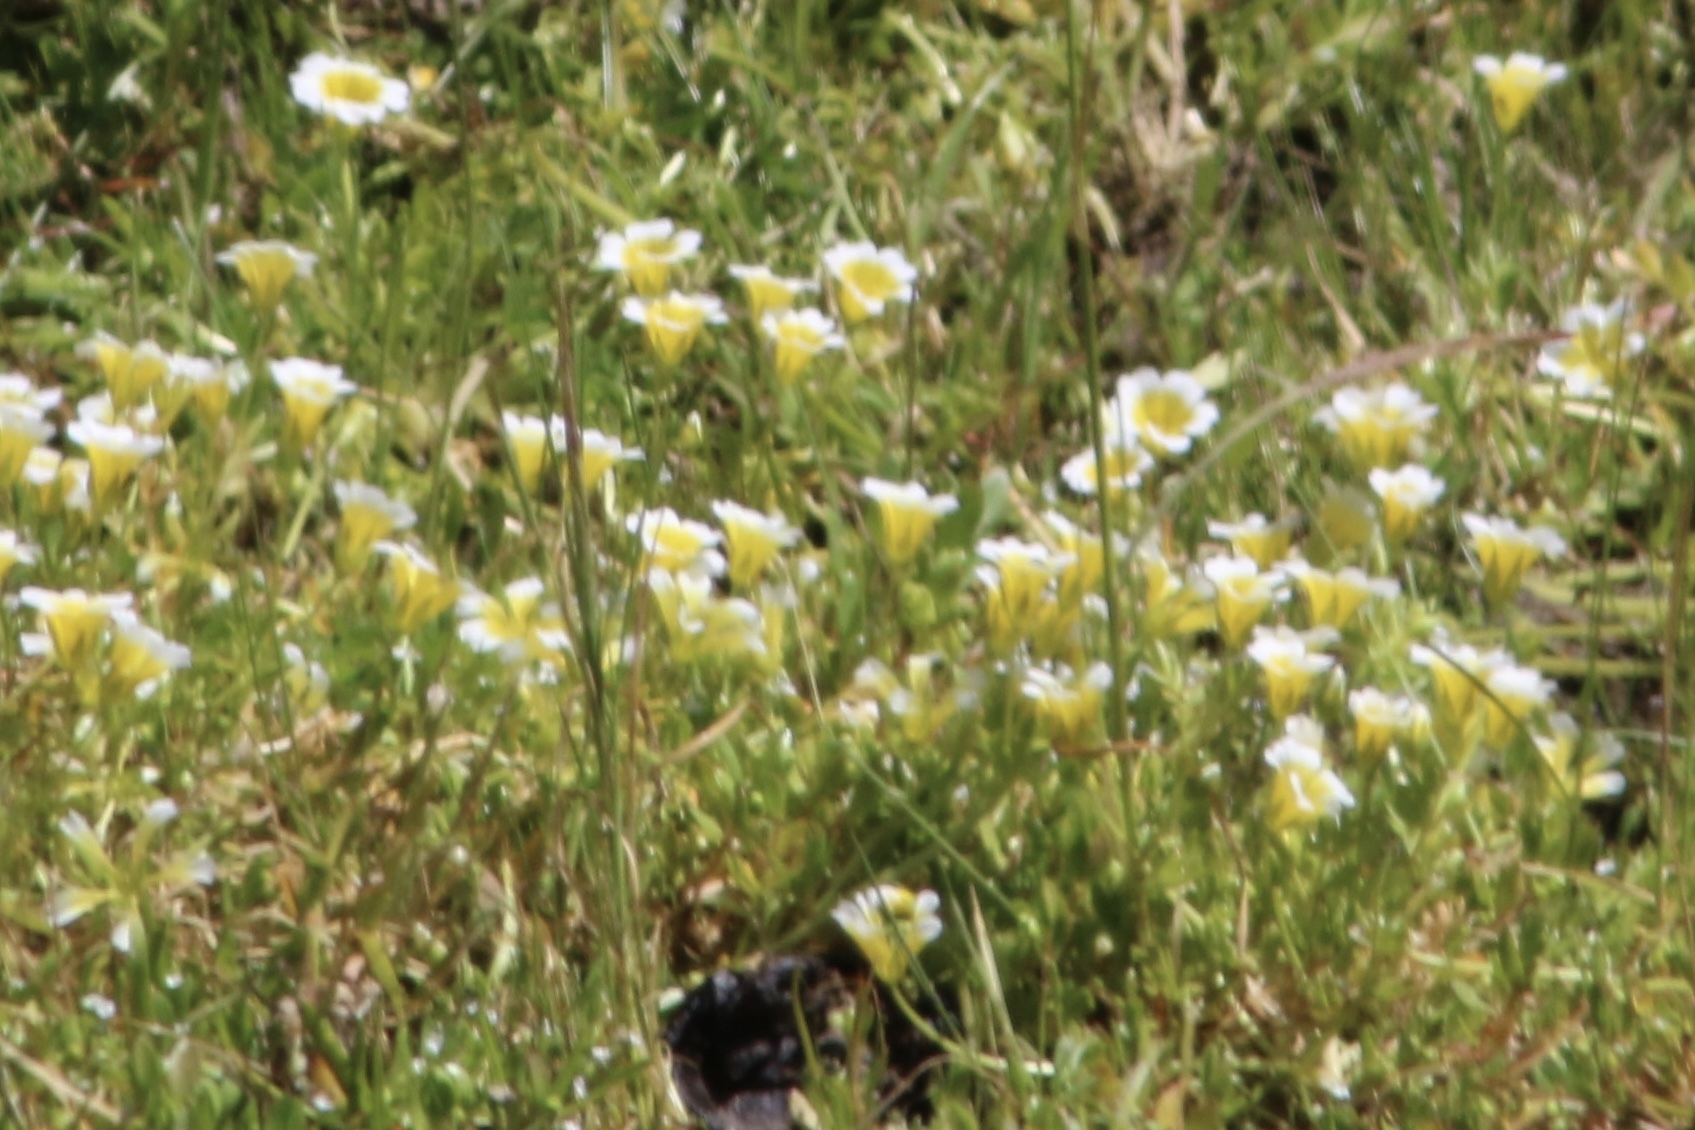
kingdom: Plantae
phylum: Tracheophyta
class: Magnoliopsida
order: Brassicales
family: Limnanthaceae
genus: Limnanthes
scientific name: Limnanthes douglasii
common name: Meadow-foam
